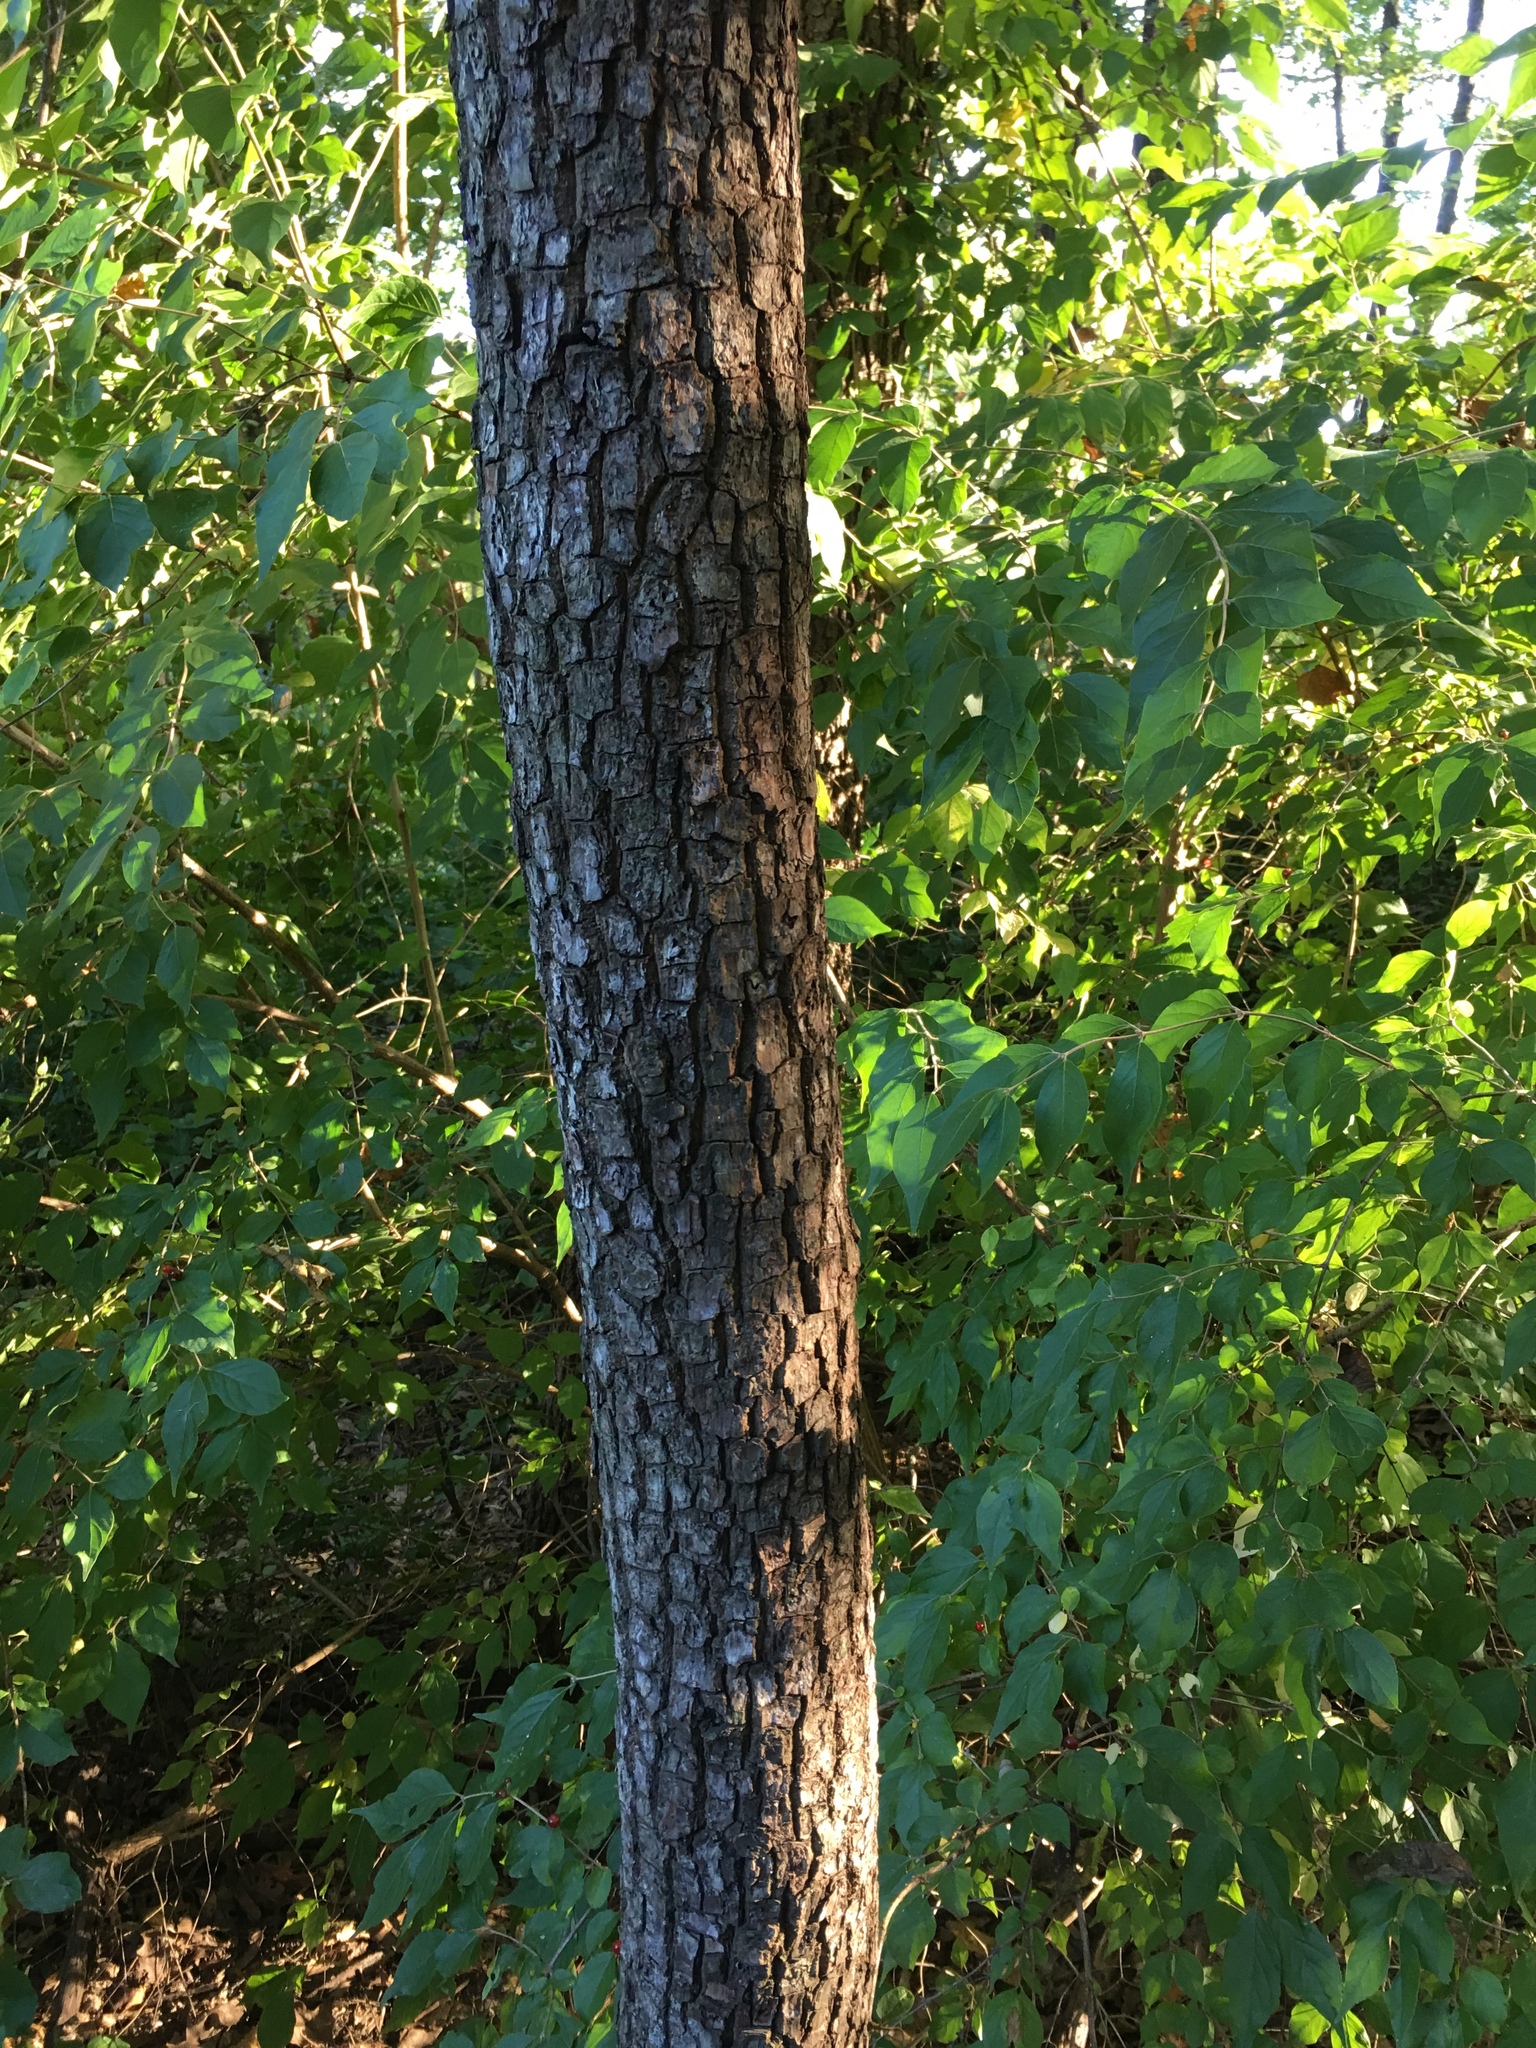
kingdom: Plantae
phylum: Tracheophyta
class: Magnoliopsida
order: Ericales
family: Ebenaceae
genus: Diospyros
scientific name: Diospyros virginiana
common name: Persimmon
